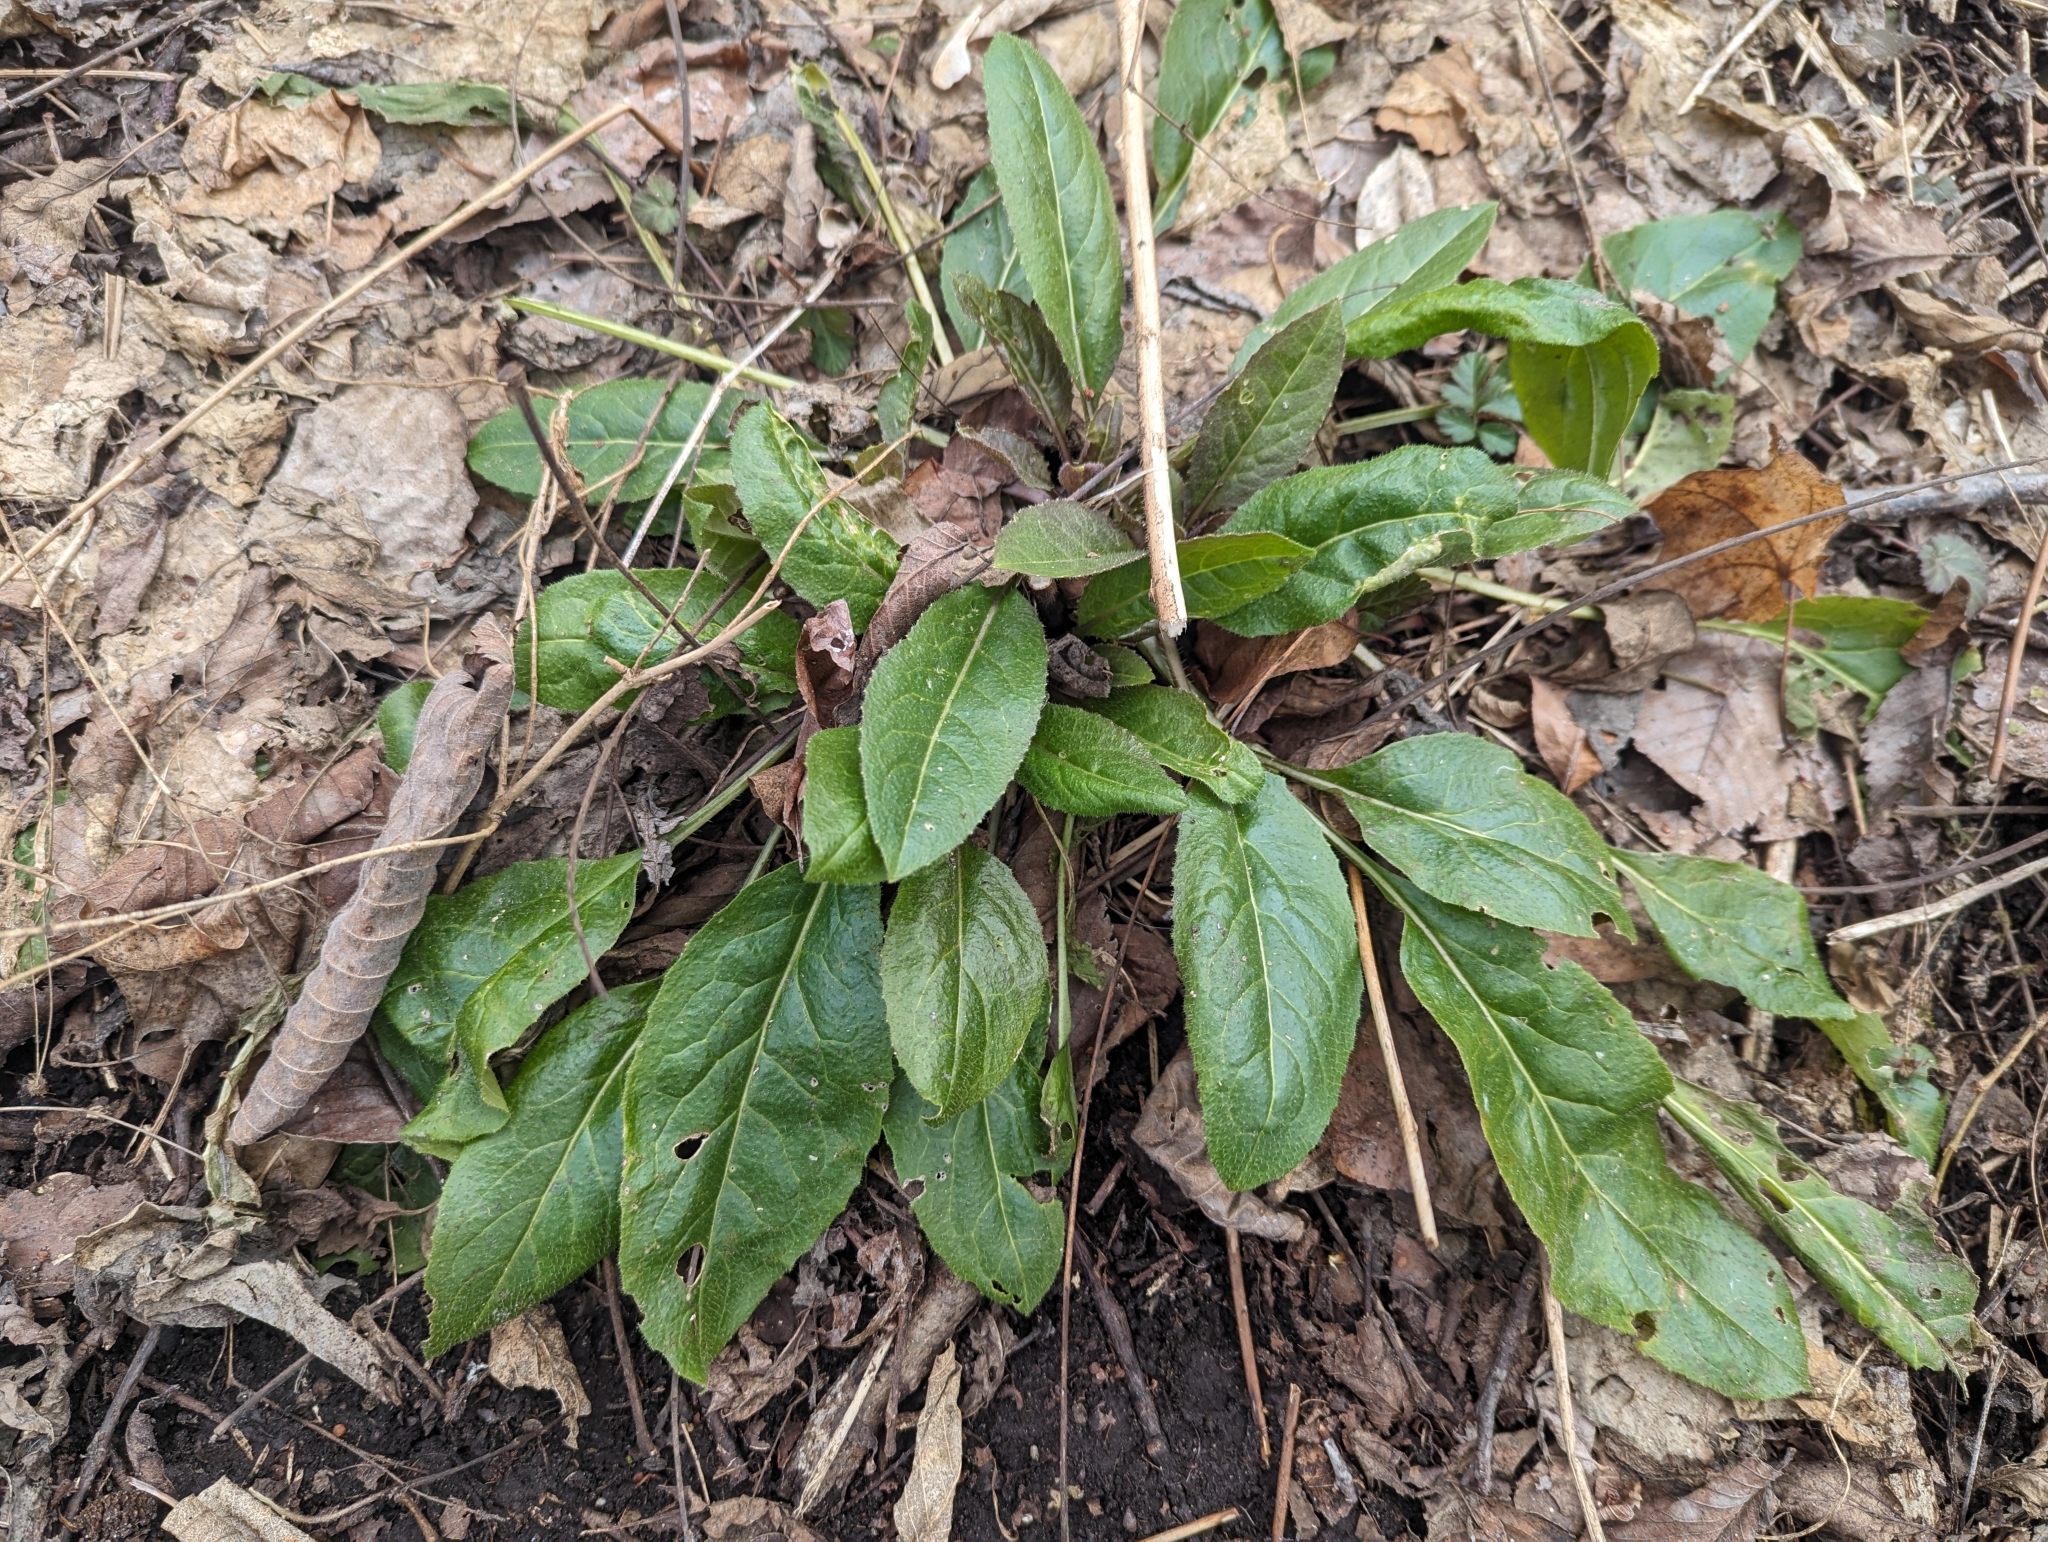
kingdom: Plantae
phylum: Tracheophyta
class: Magnoliopsida
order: Brassicales
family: Brassicaceae
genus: Hesperis
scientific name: Hesperis matronalis
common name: Dame's-violet
